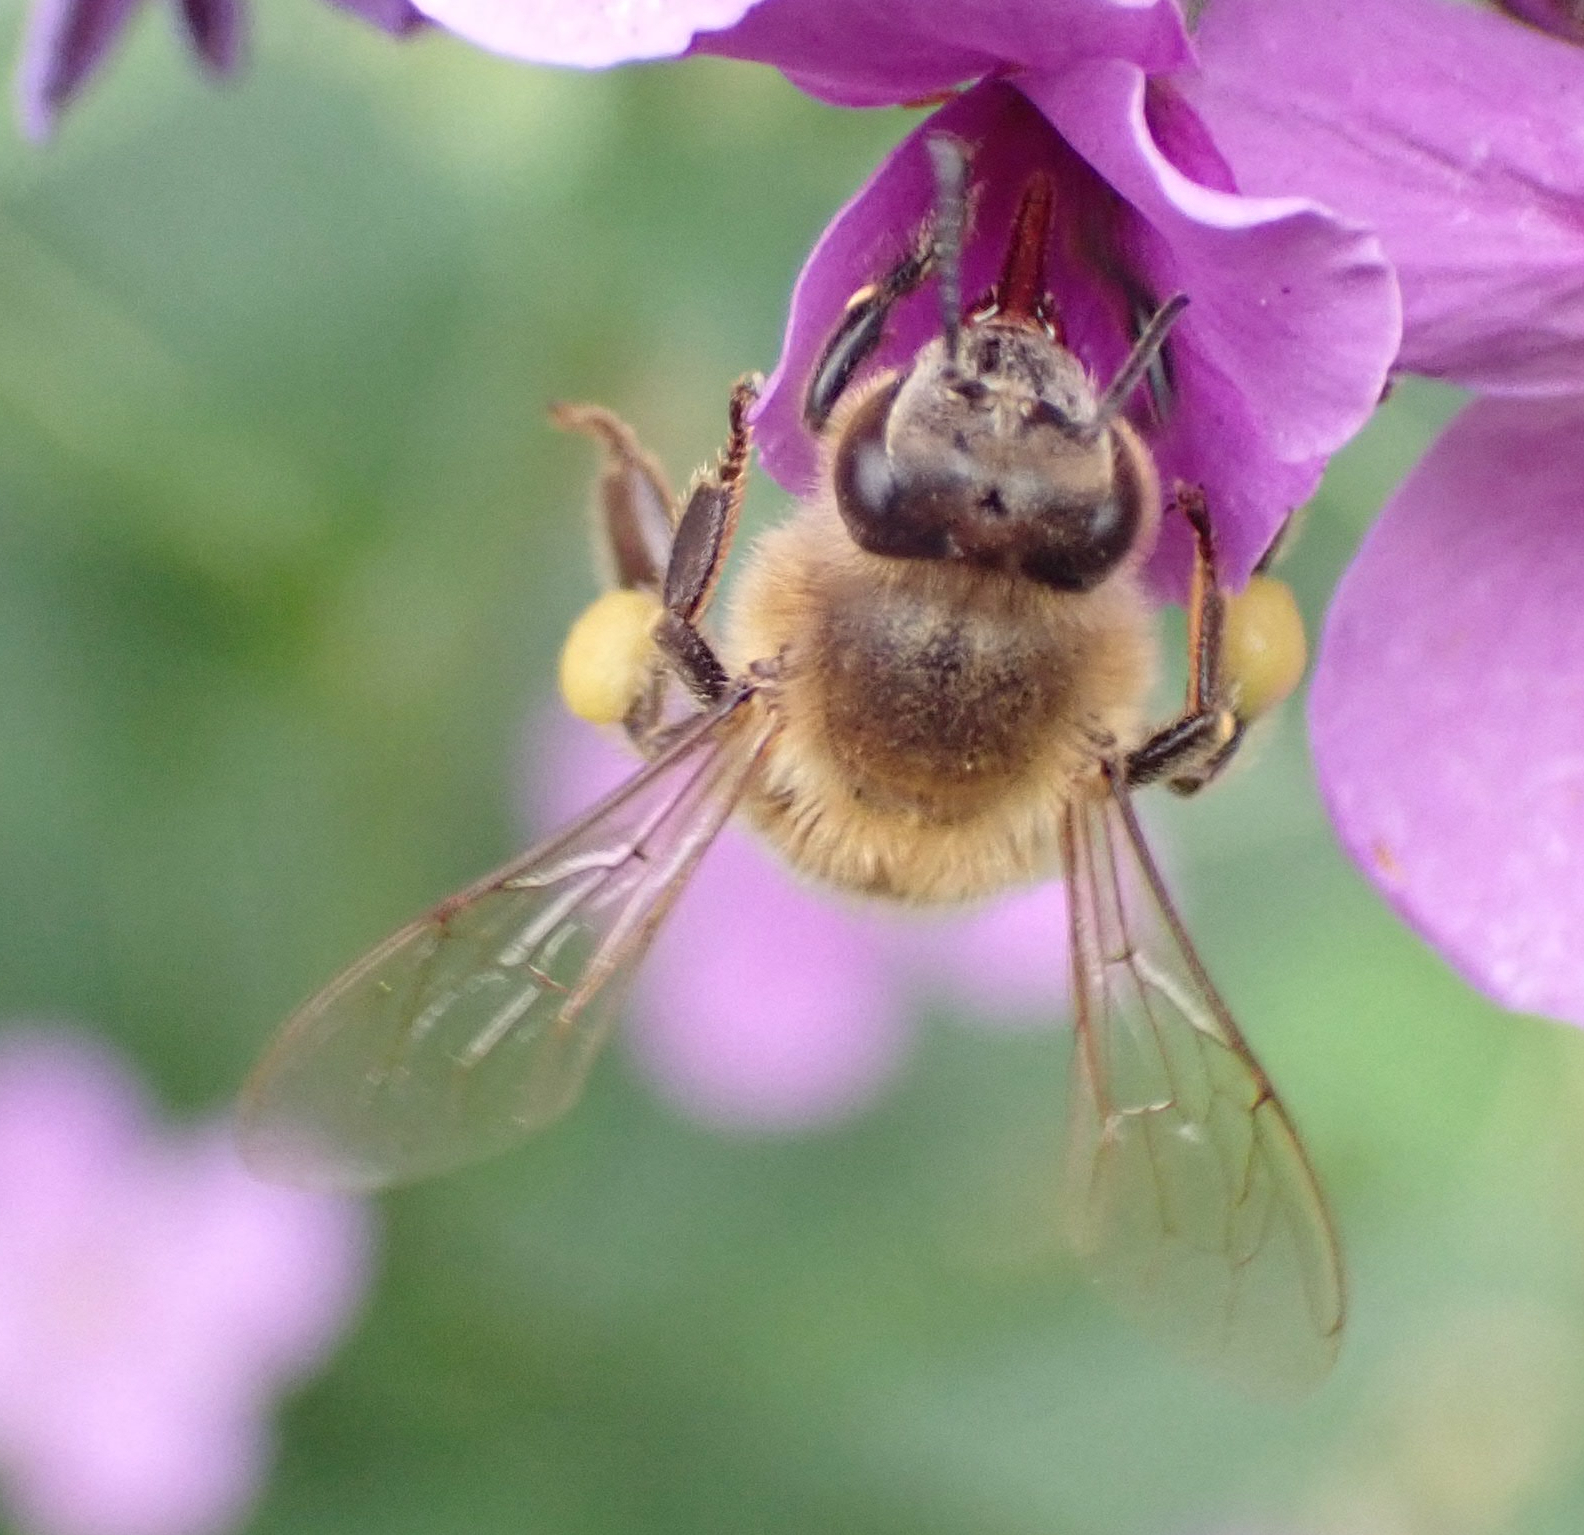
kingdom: Animalia
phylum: Arthropoda
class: Insecta
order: Hymenoptera
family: Apidae
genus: Apis
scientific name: Apis mellifera
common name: Honey bee
